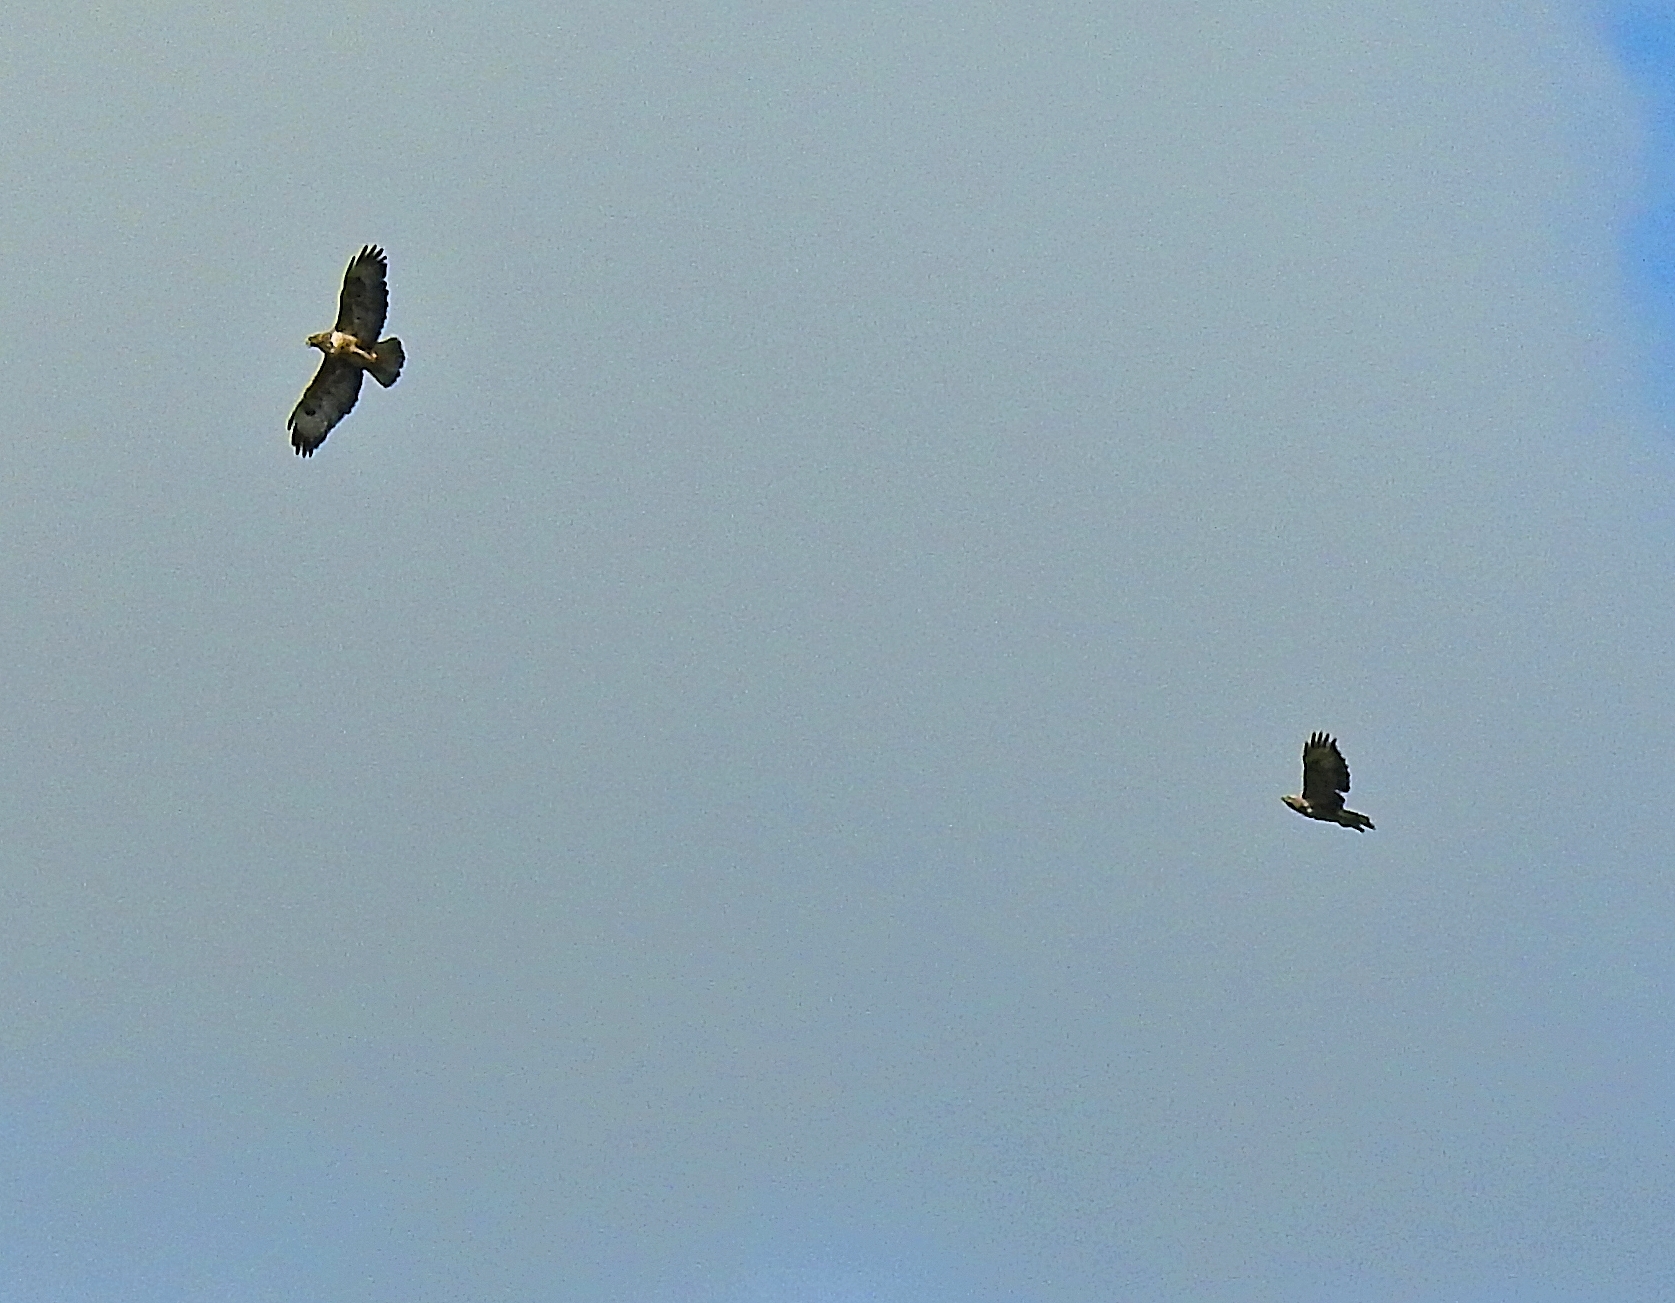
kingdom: Animalia
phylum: Chordata
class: Aves
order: Accipitriformes
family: Accipitridae
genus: Buteo
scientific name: Buteo buteo
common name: Common buzzard
